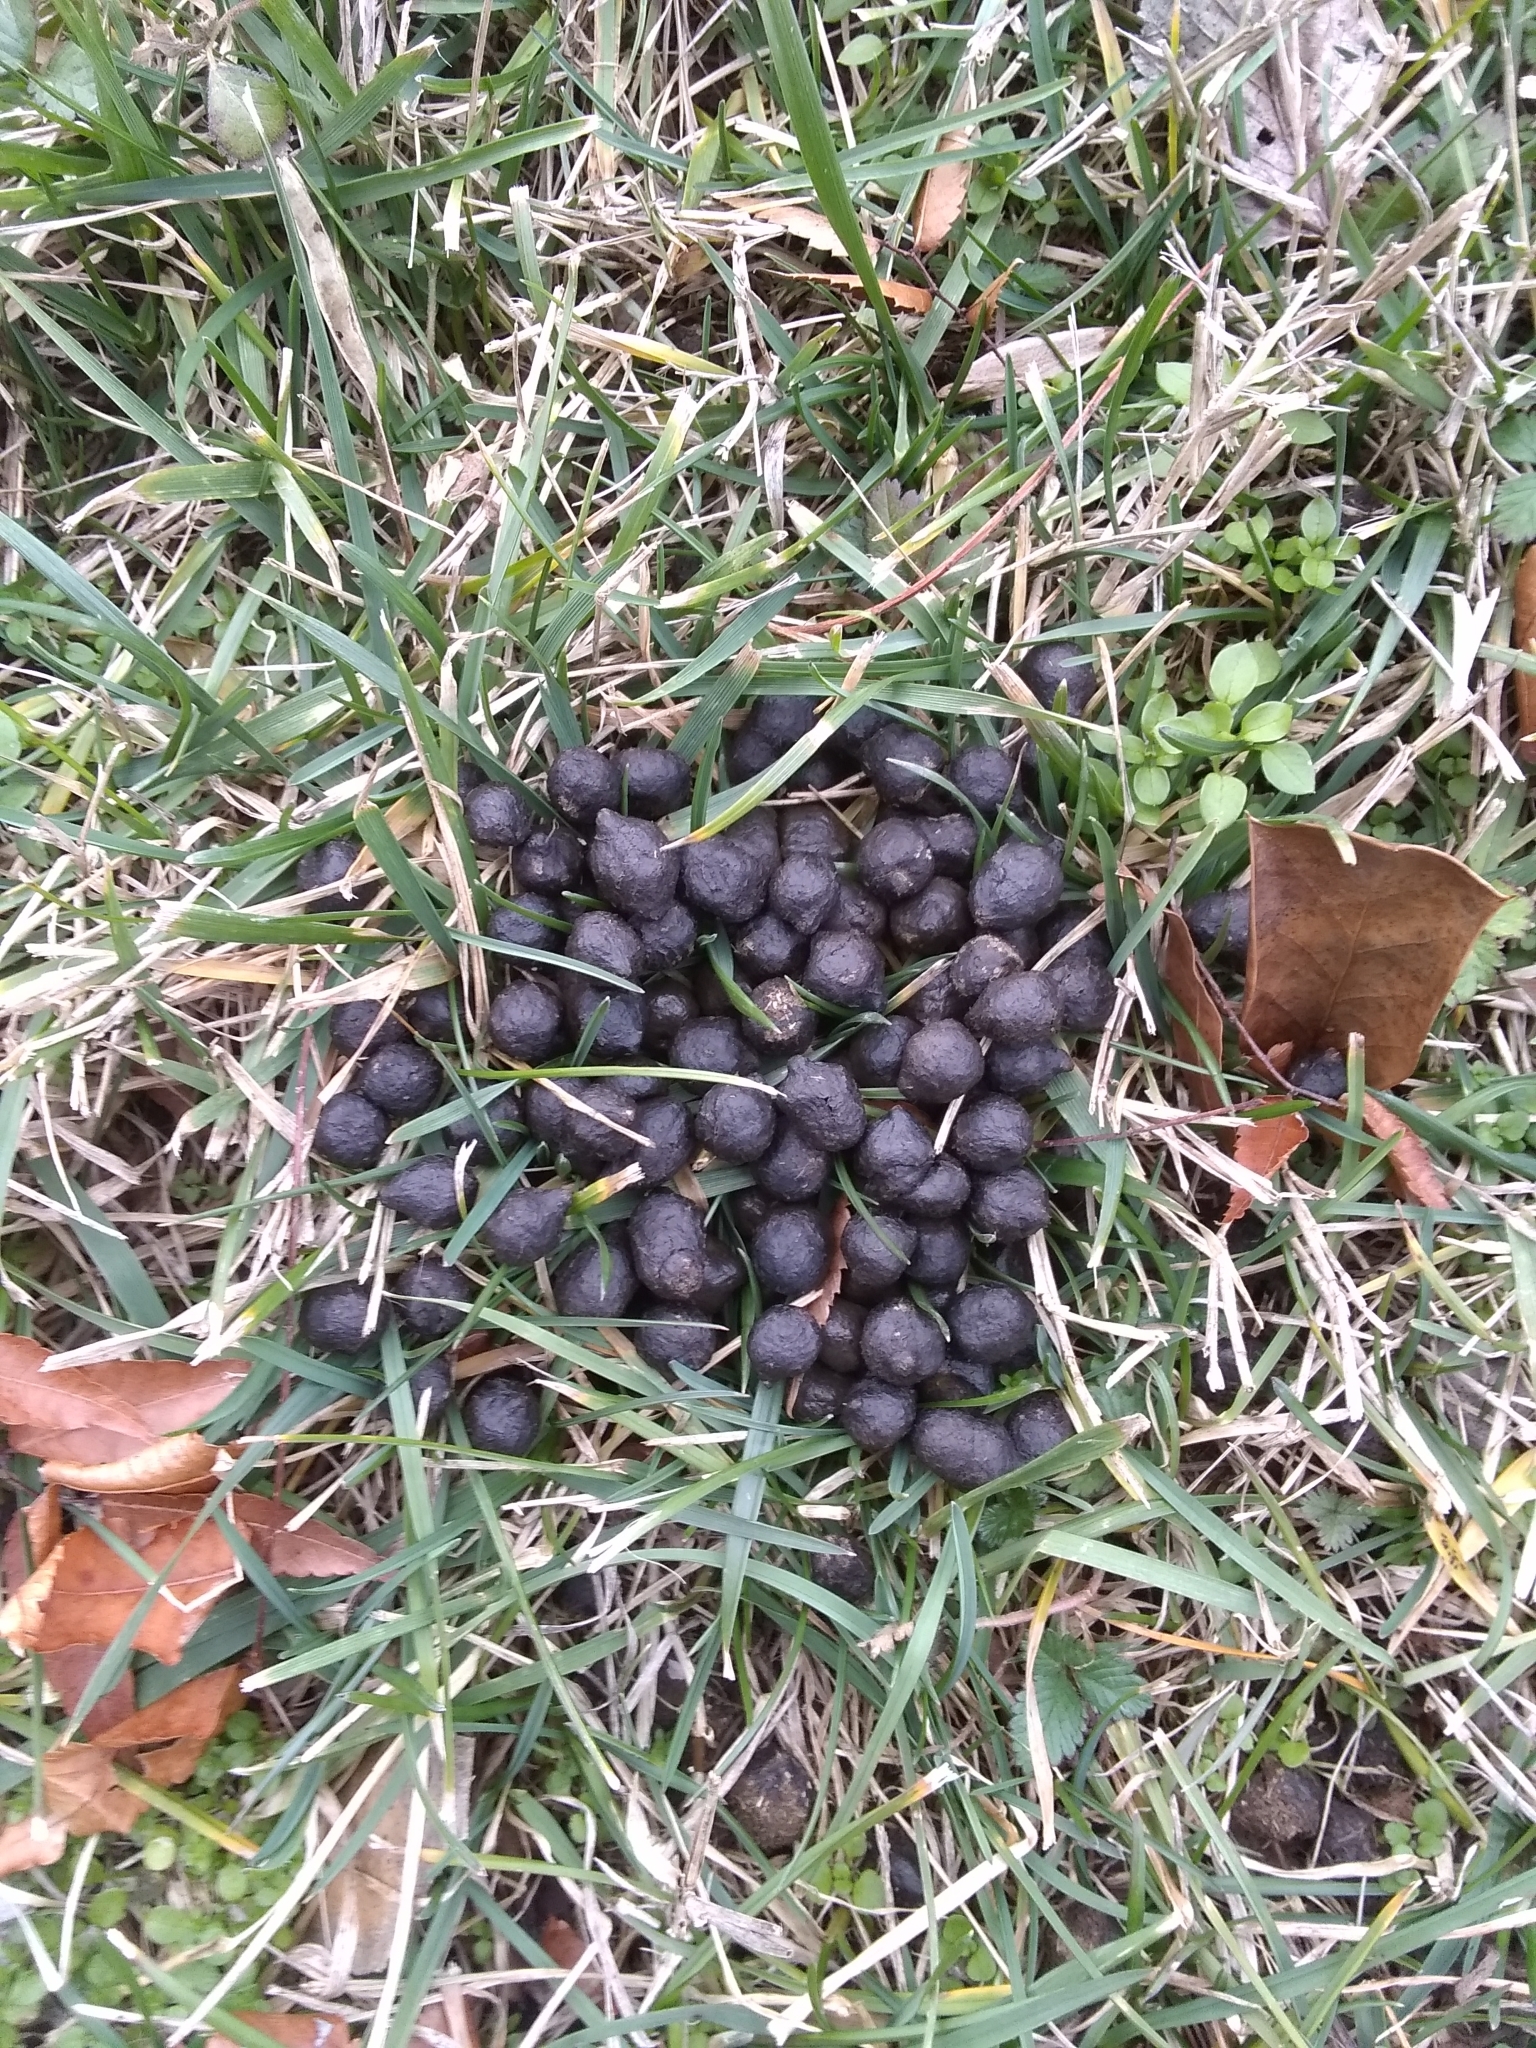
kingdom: Animalia
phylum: Chordata
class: Mammalia
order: Artiodactyla
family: Cervidae
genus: Odocoileus
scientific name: Odocoileus virginianus
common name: White-tailed deer
